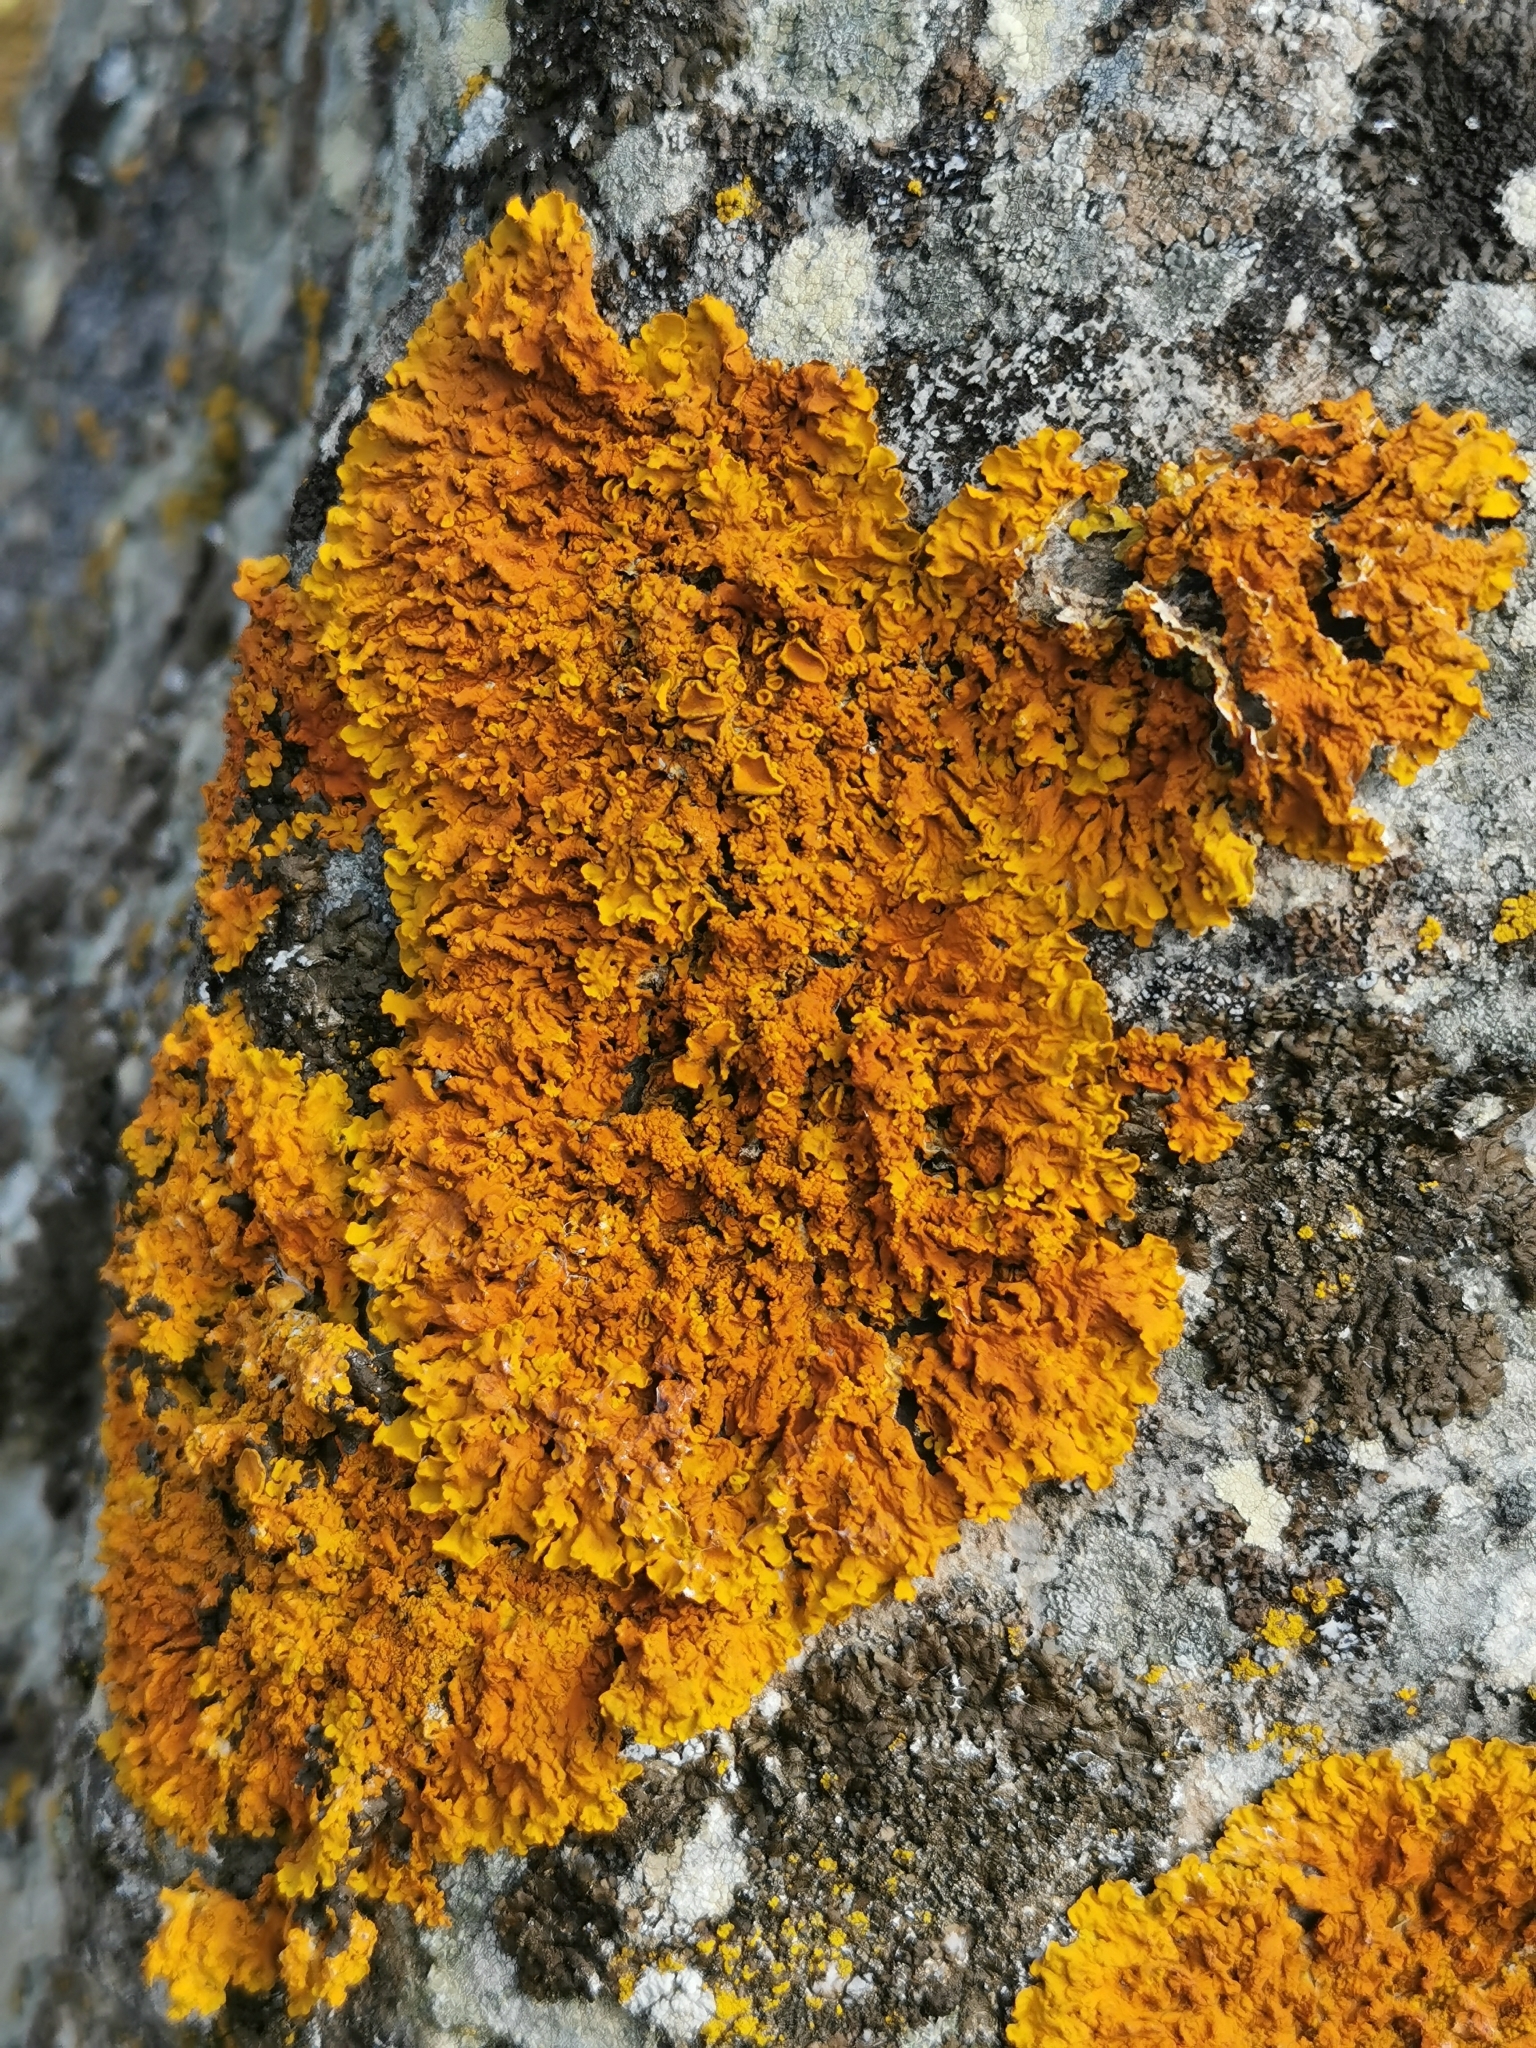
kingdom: Fungi
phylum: Ascomycota
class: Lecanoromycetes
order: Teloschistales
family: Teloschistaceae
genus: Xanthoria
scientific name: Xanthoria parietina
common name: Common orange lichen
